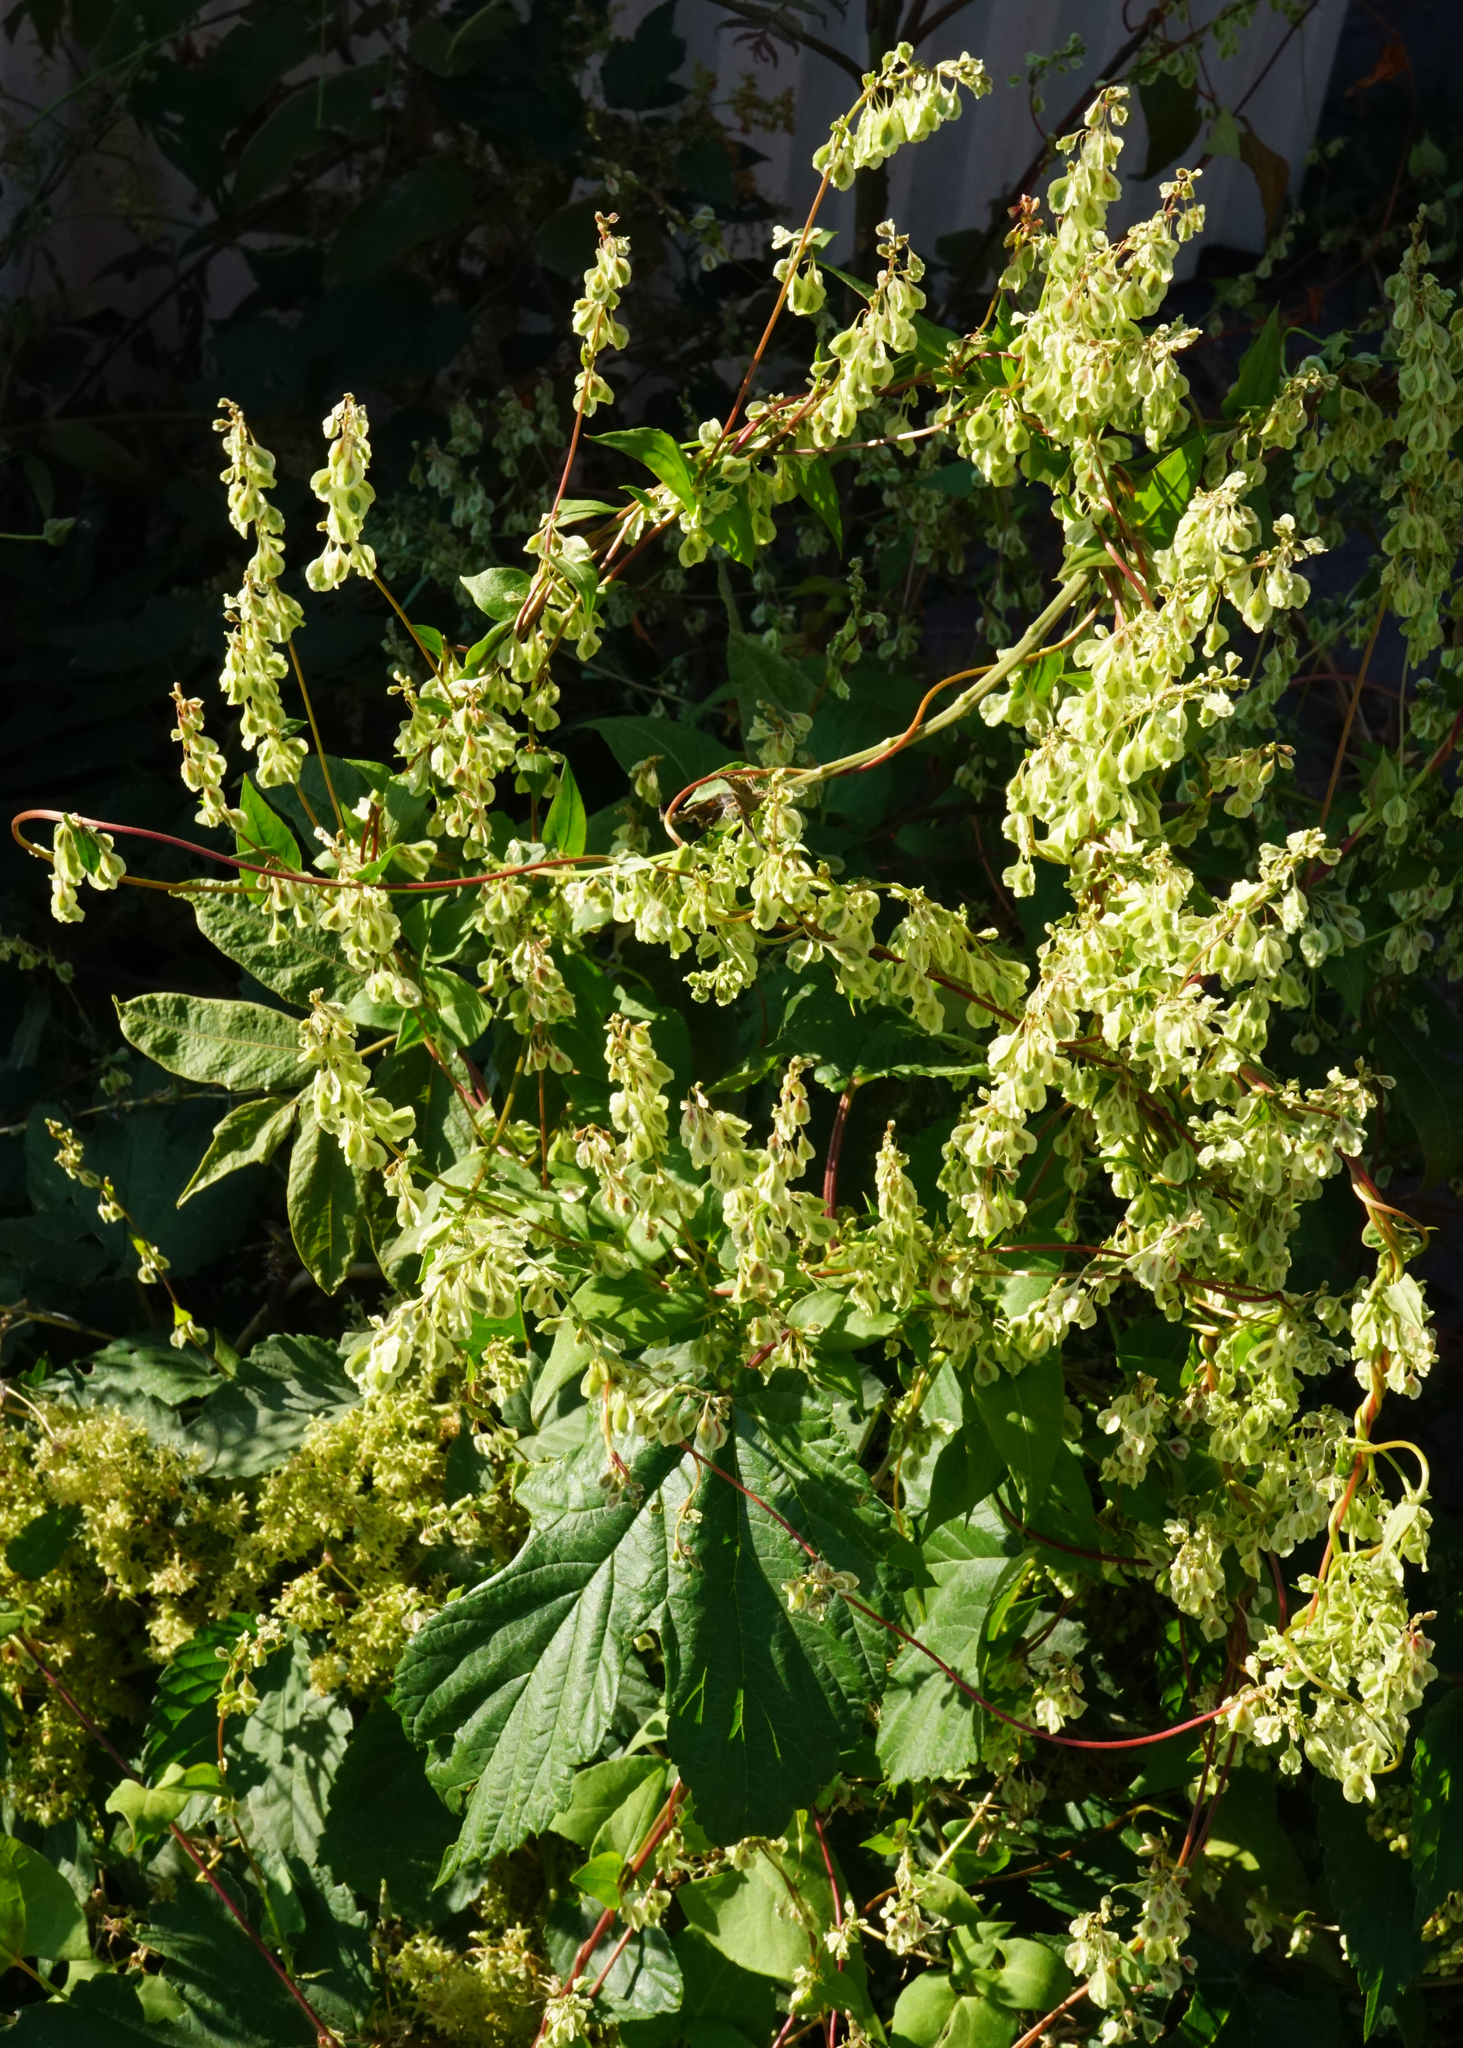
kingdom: Plantae
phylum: Tracheophyta
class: Magnoliopsida
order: Caryophyllales
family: Polygonaceae
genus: Fallopia
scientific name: Fallopia dumetorum
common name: Copse-bindweed
